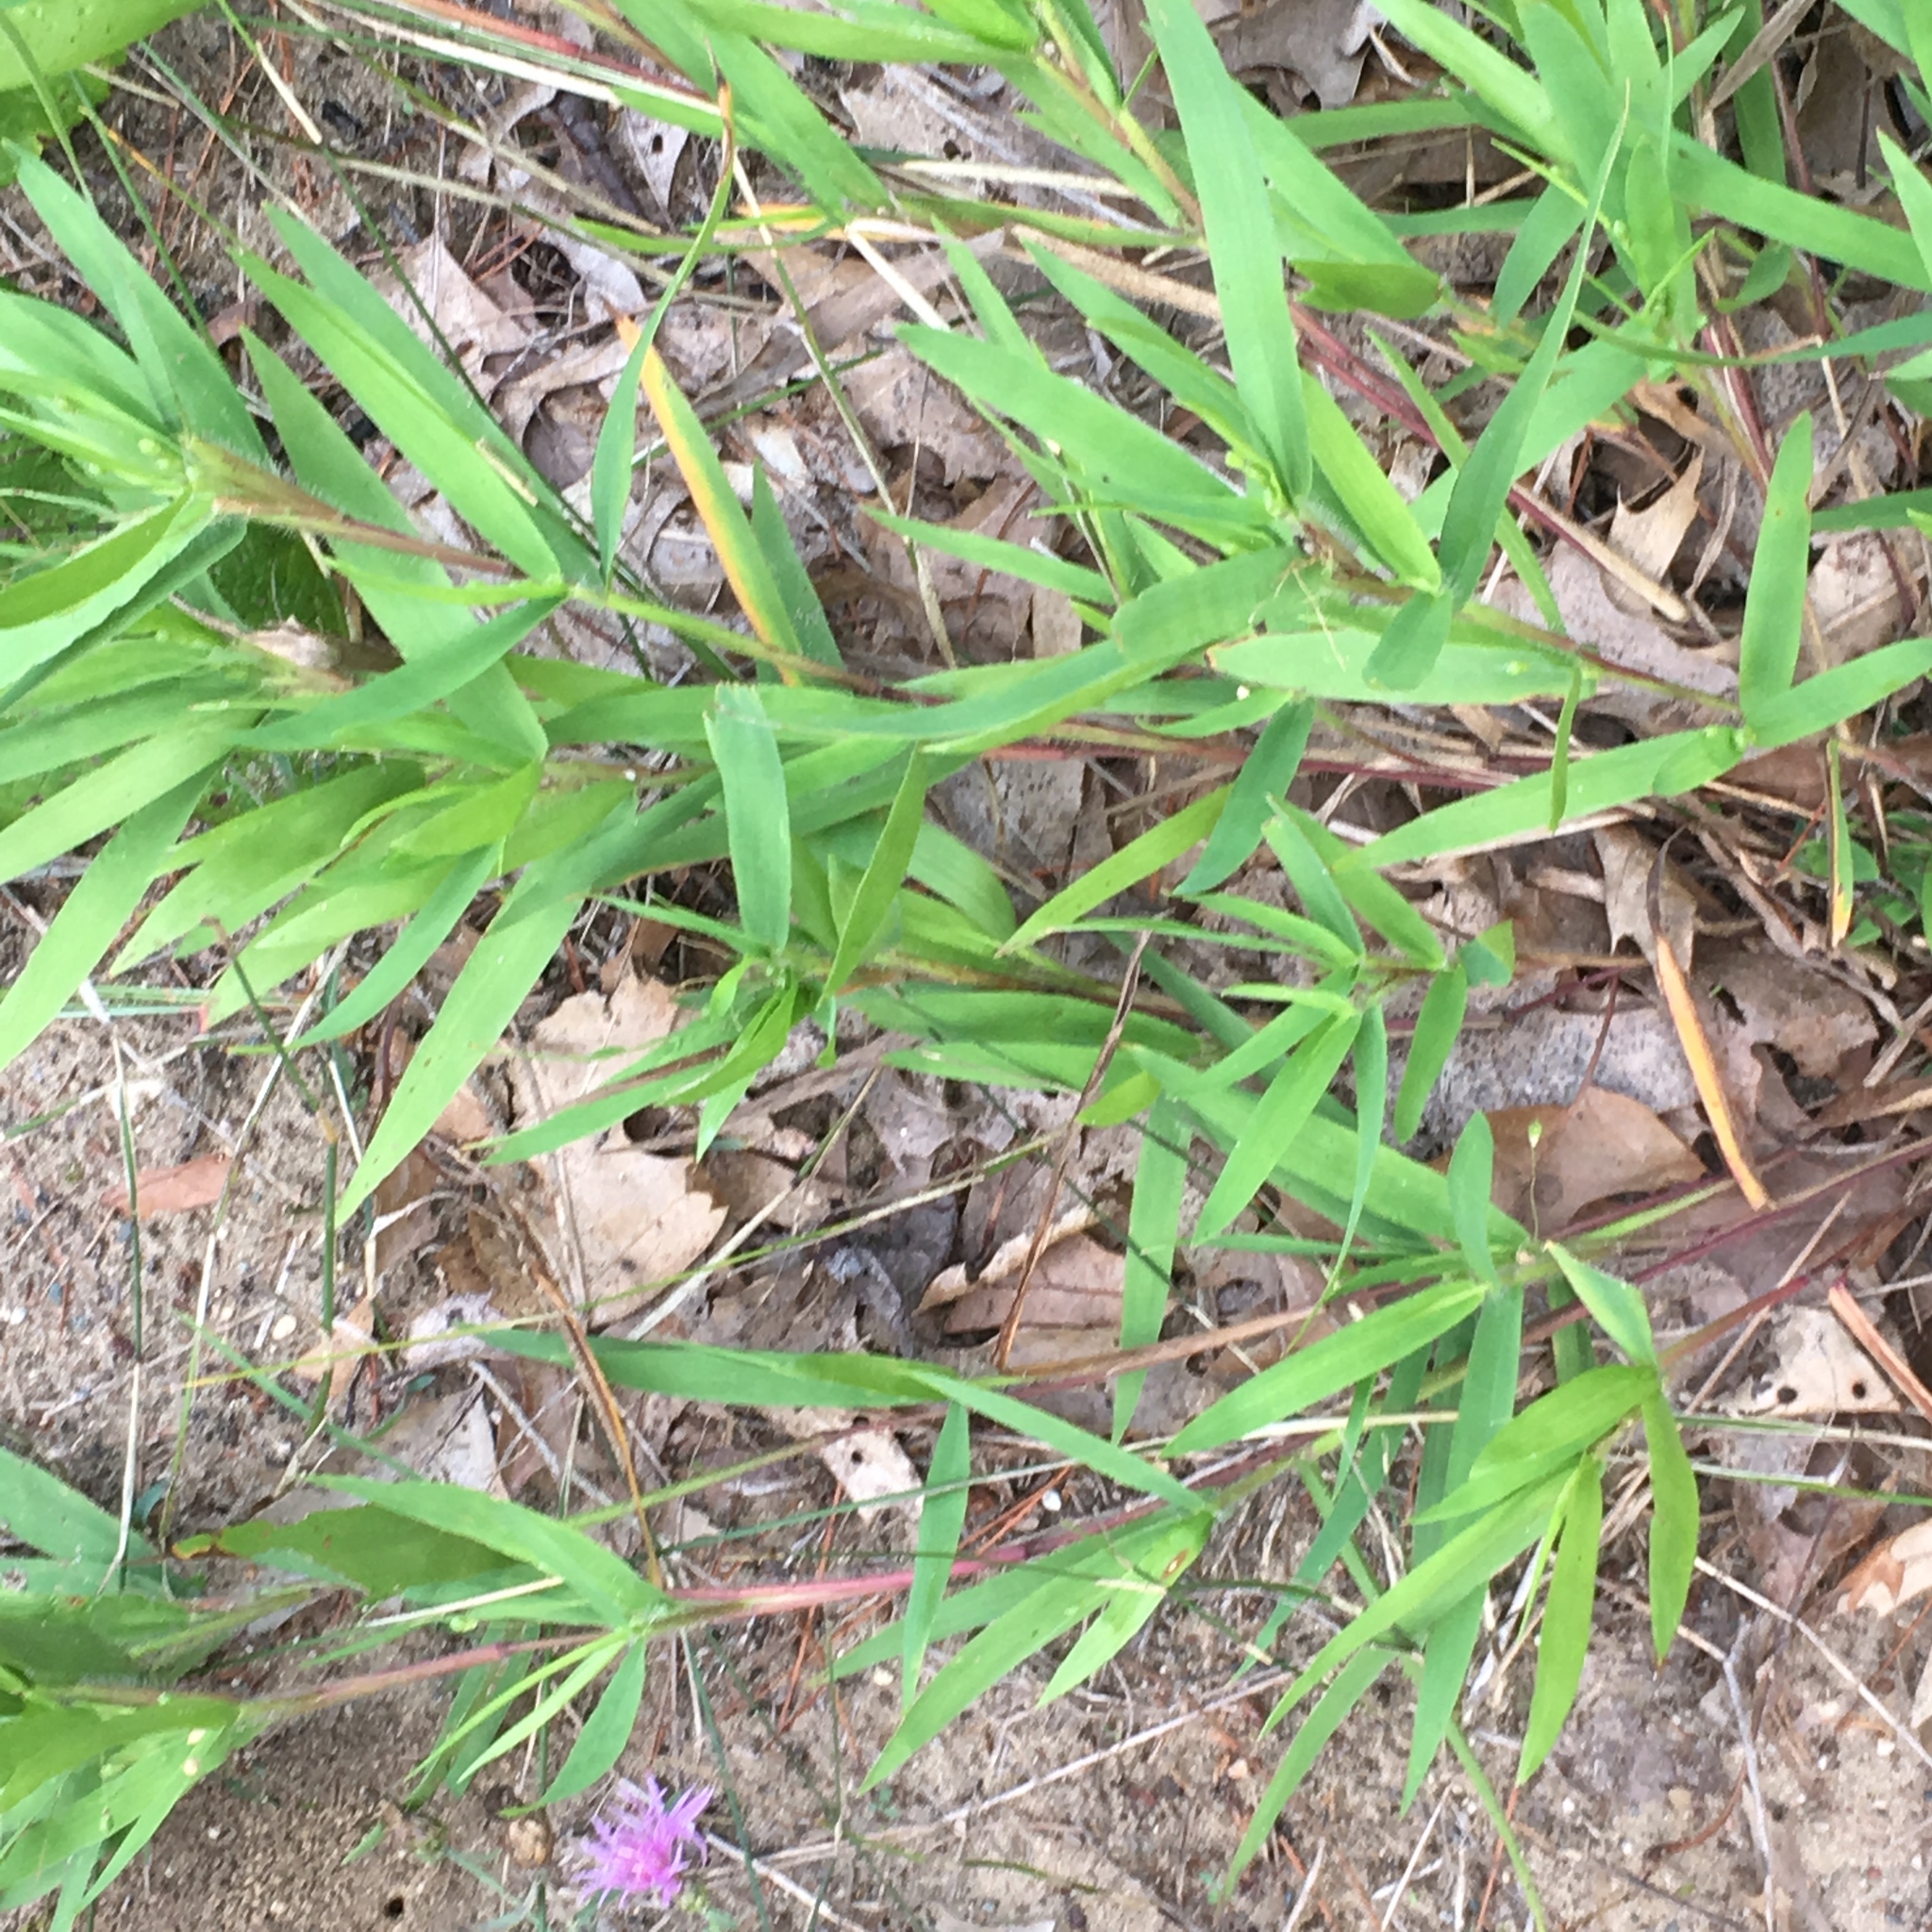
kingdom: Plantae
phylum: Tracheophyta
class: Liliopsida
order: Poales
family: Poaceae
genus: Dichanthelium
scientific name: Dichanthelium scribnerianum
